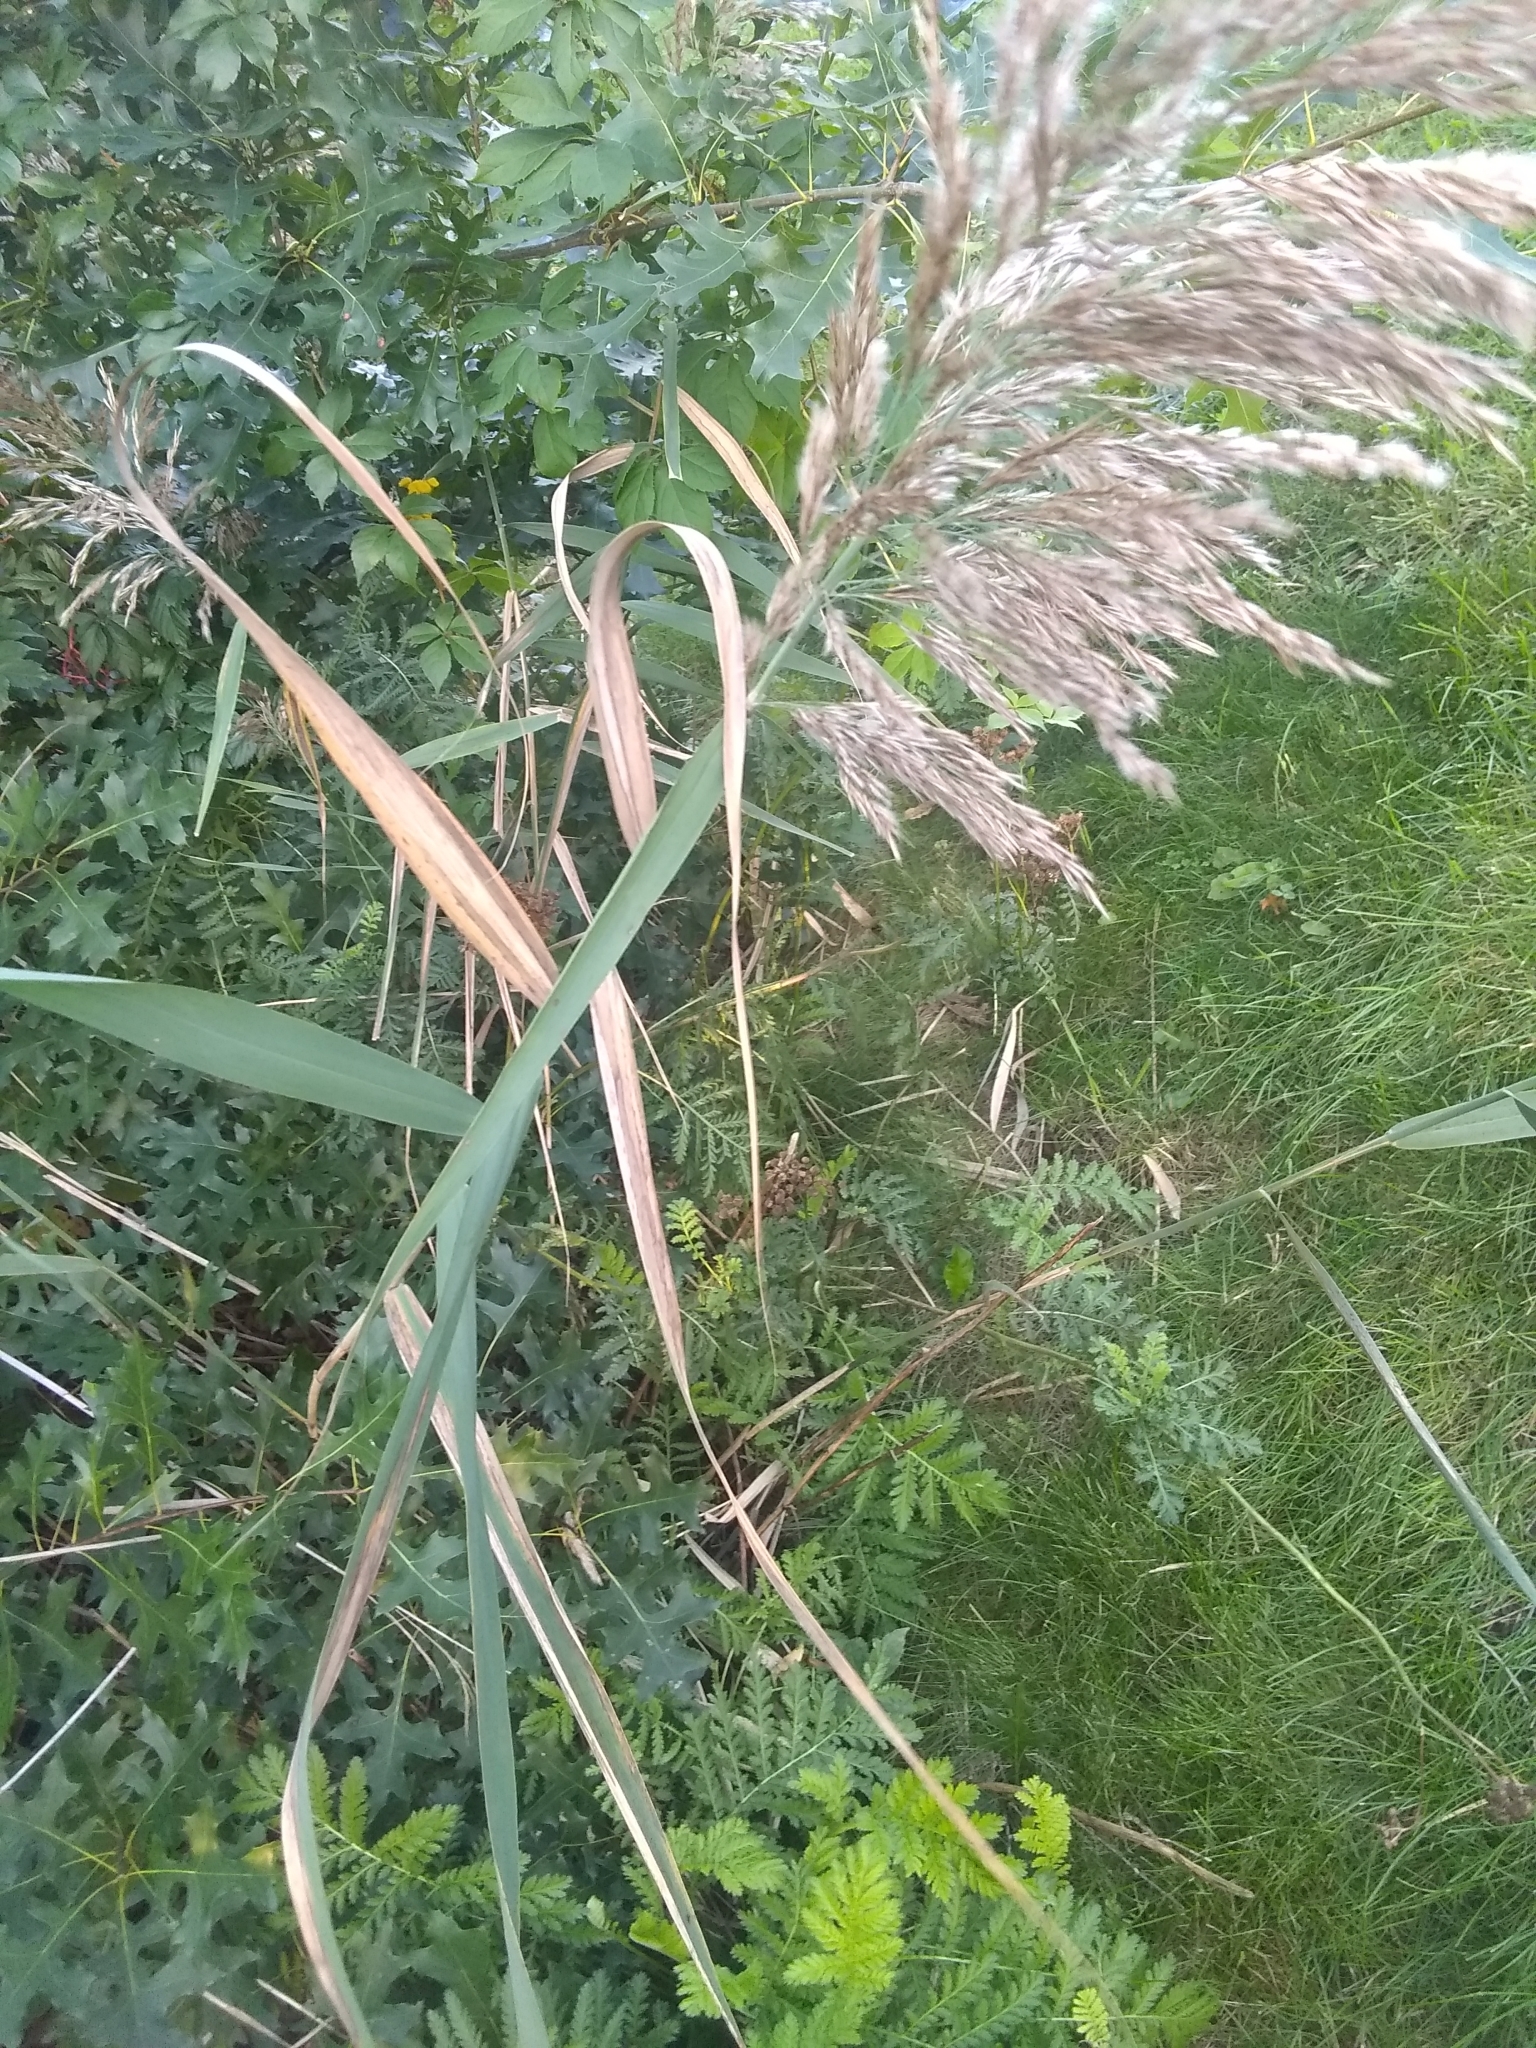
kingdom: Plantae
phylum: Tracheophyta
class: Liliopsida
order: Poales
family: Poaceae
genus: Phragmites
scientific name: Phragmites australis
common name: Common reed
